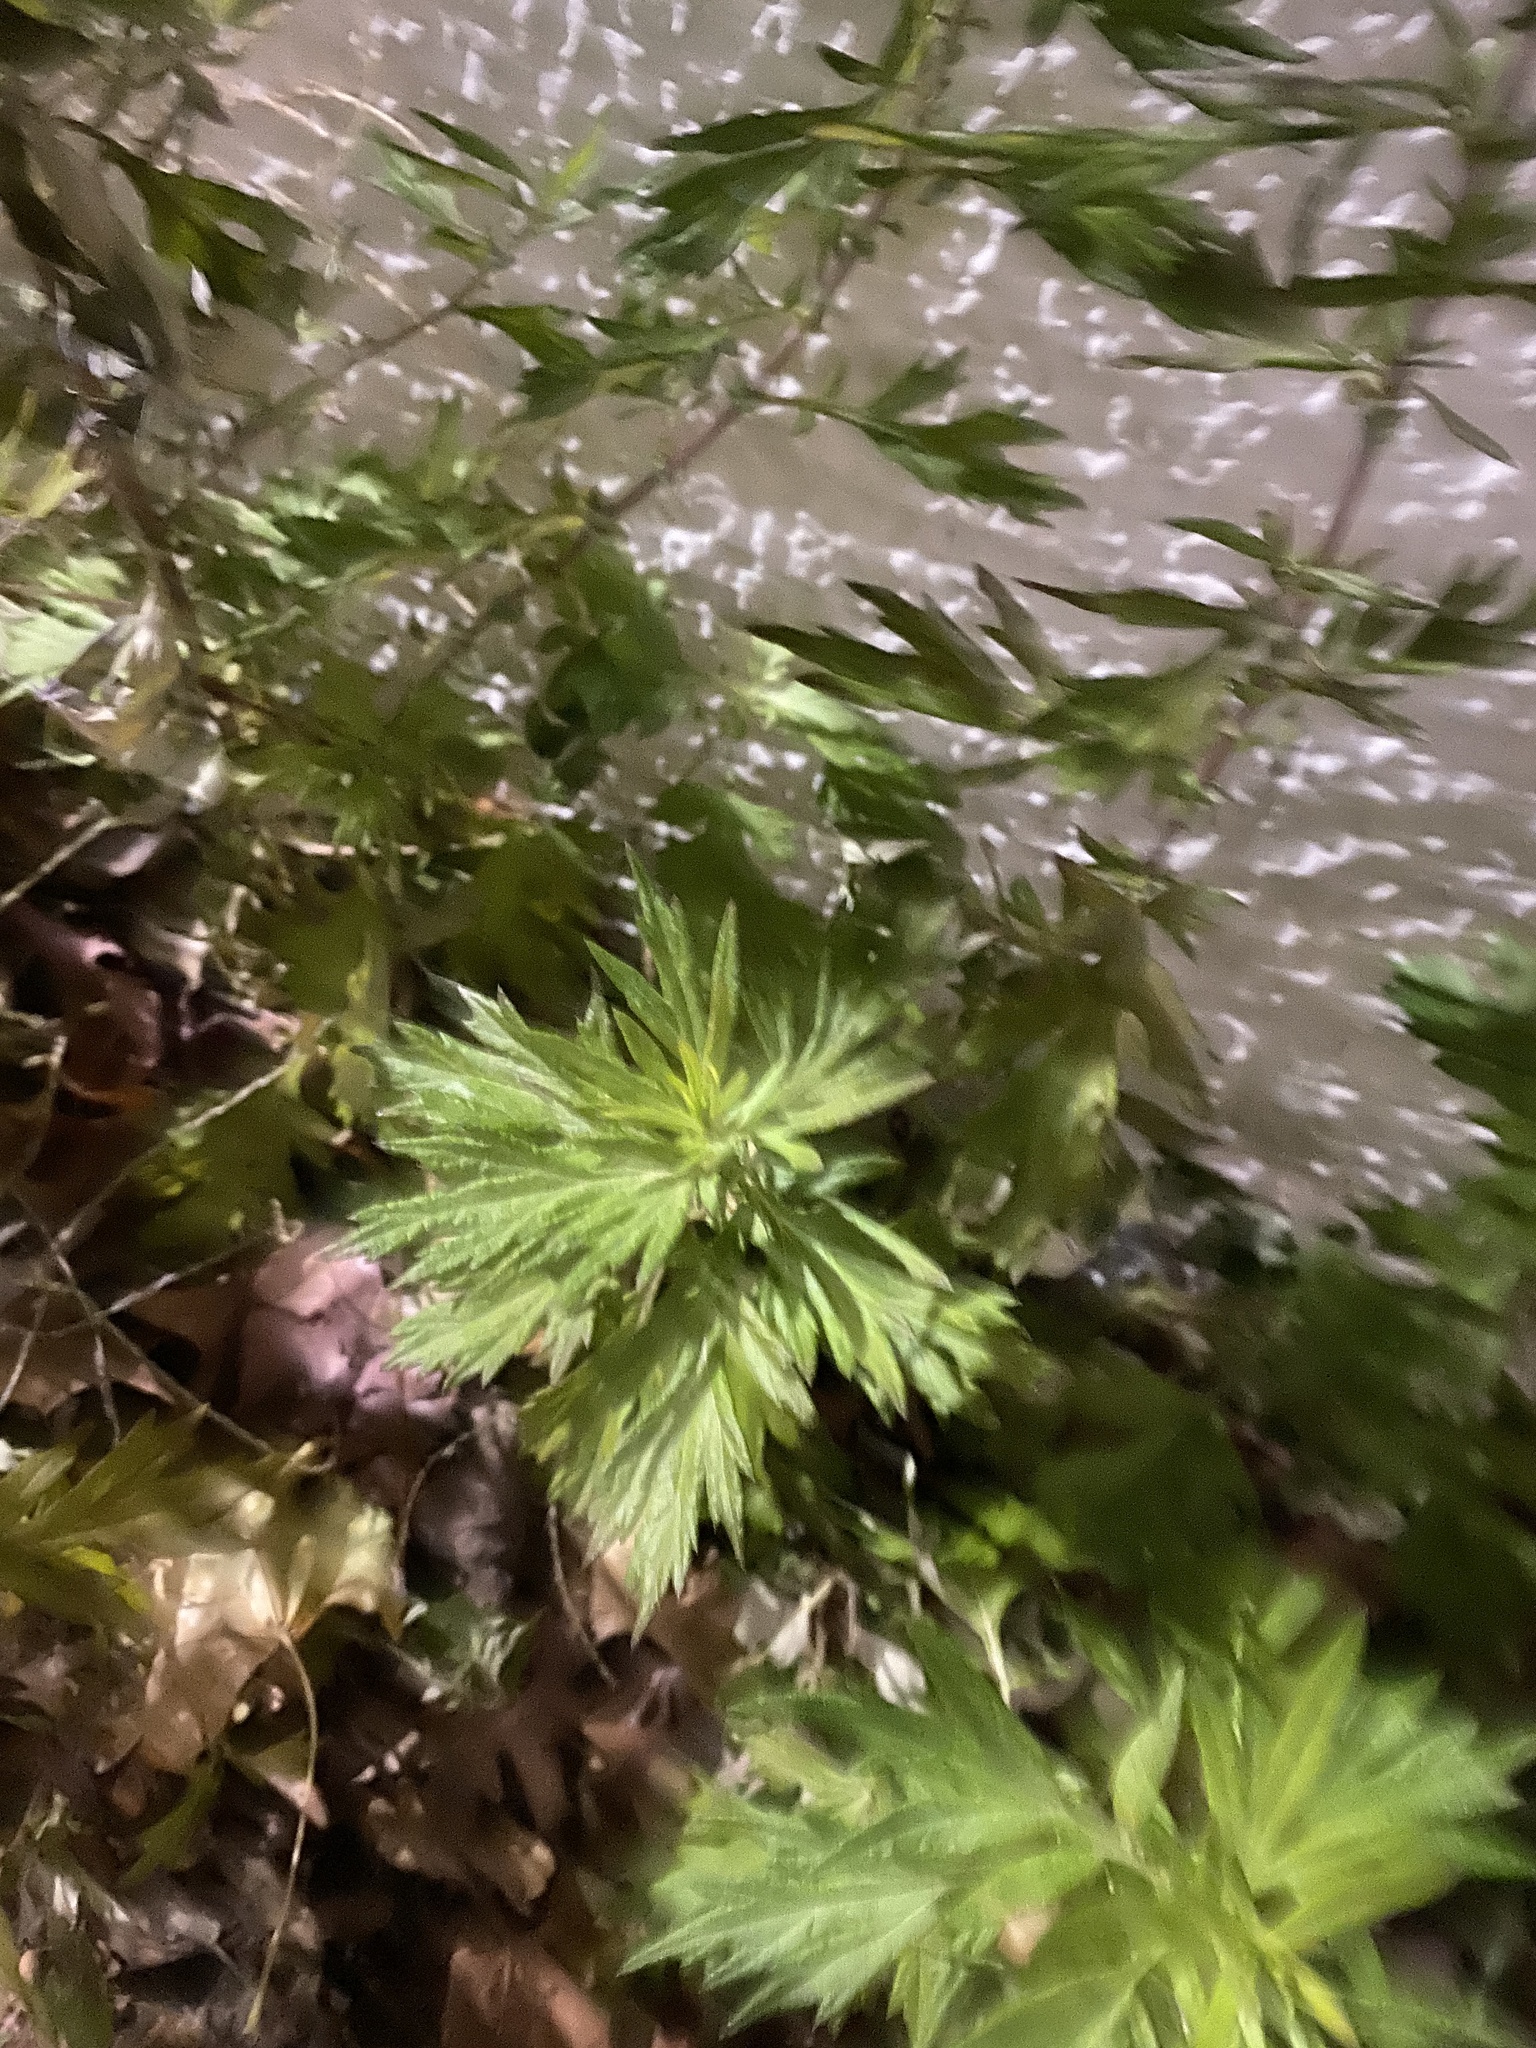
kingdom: Plantae
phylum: Tracheophyta
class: Magnoliopsida
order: Asterales
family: Asteraceae
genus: Artemisia
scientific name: Artemisia vulgaris
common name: Mugwort
